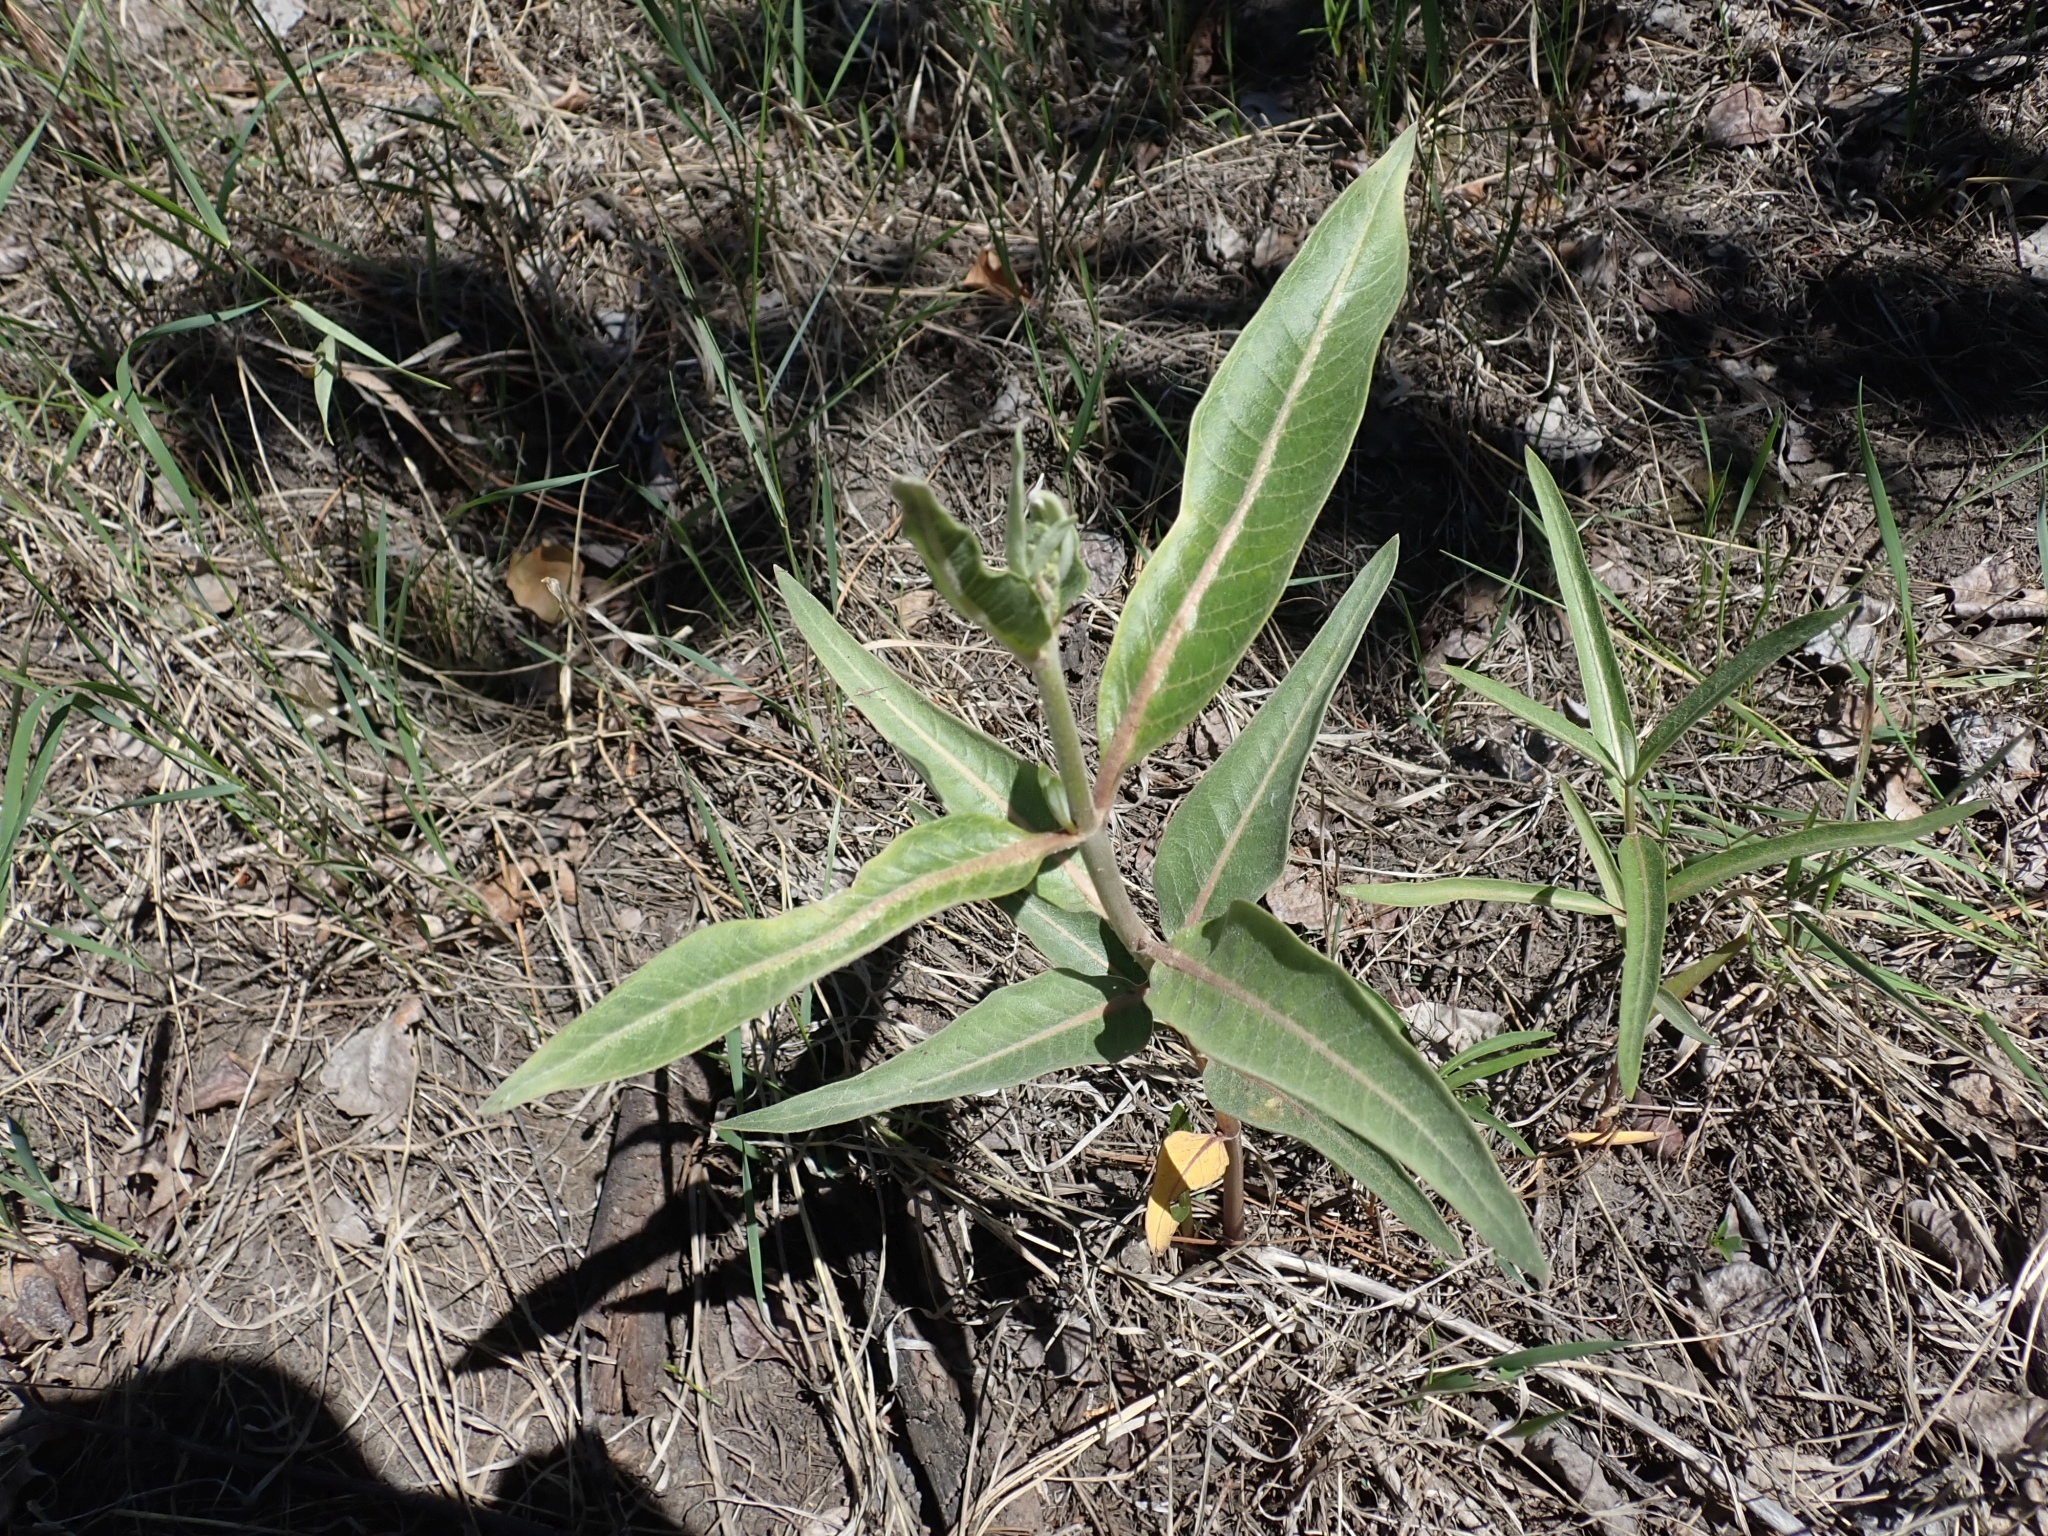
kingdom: Plantae
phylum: Tracheophyta
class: Magnoliopsida
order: Gentianales
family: Apocynaceae
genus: Asclepias
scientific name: Asclepias speciosa
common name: Showy milkweed
